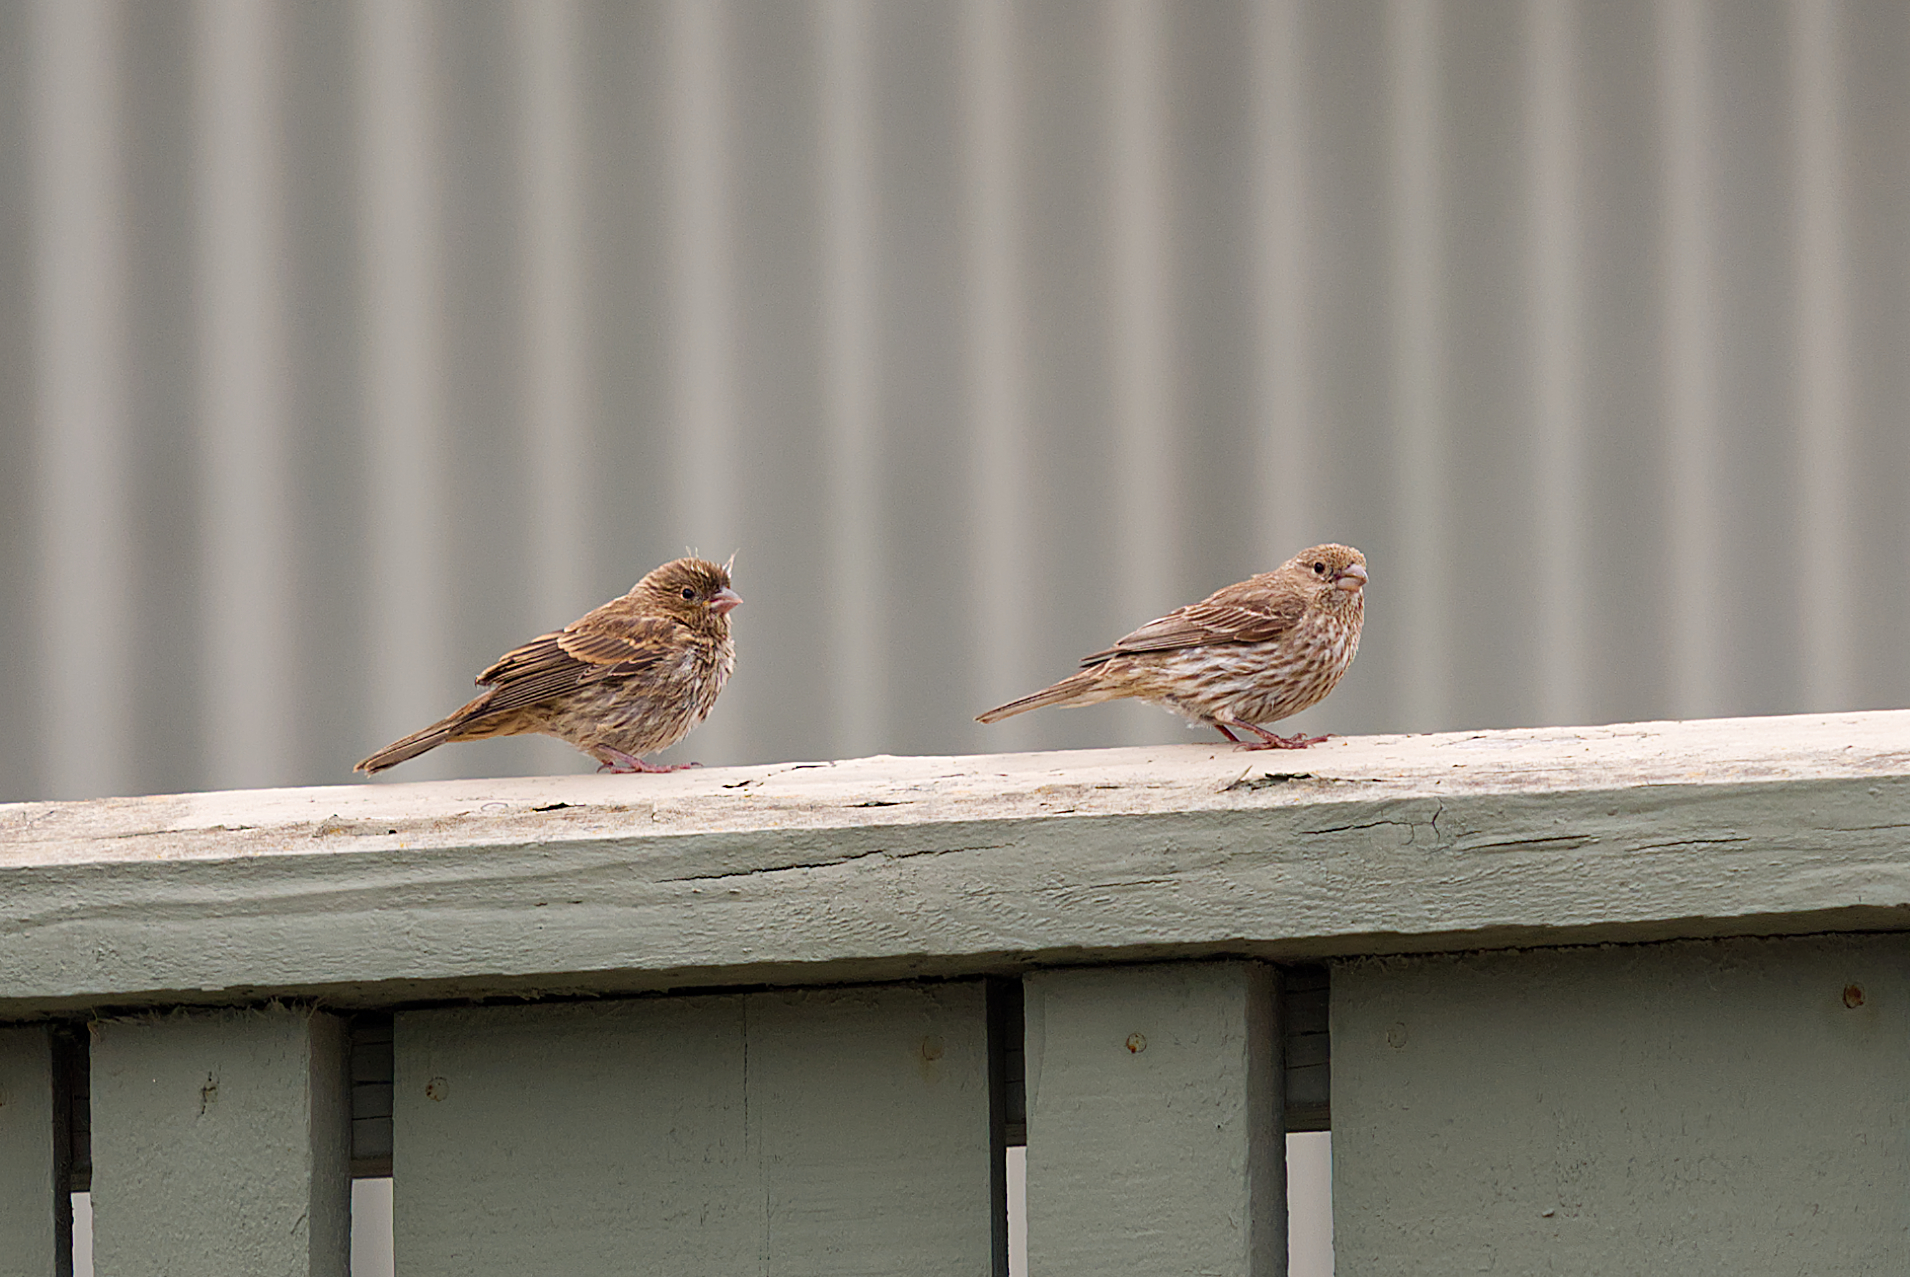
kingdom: Animalia
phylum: Chordata
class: Aves
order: Passeriformes
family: Fringillidae
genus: Haemorhous
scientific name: Haemorhous mexicanus
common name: House finch
